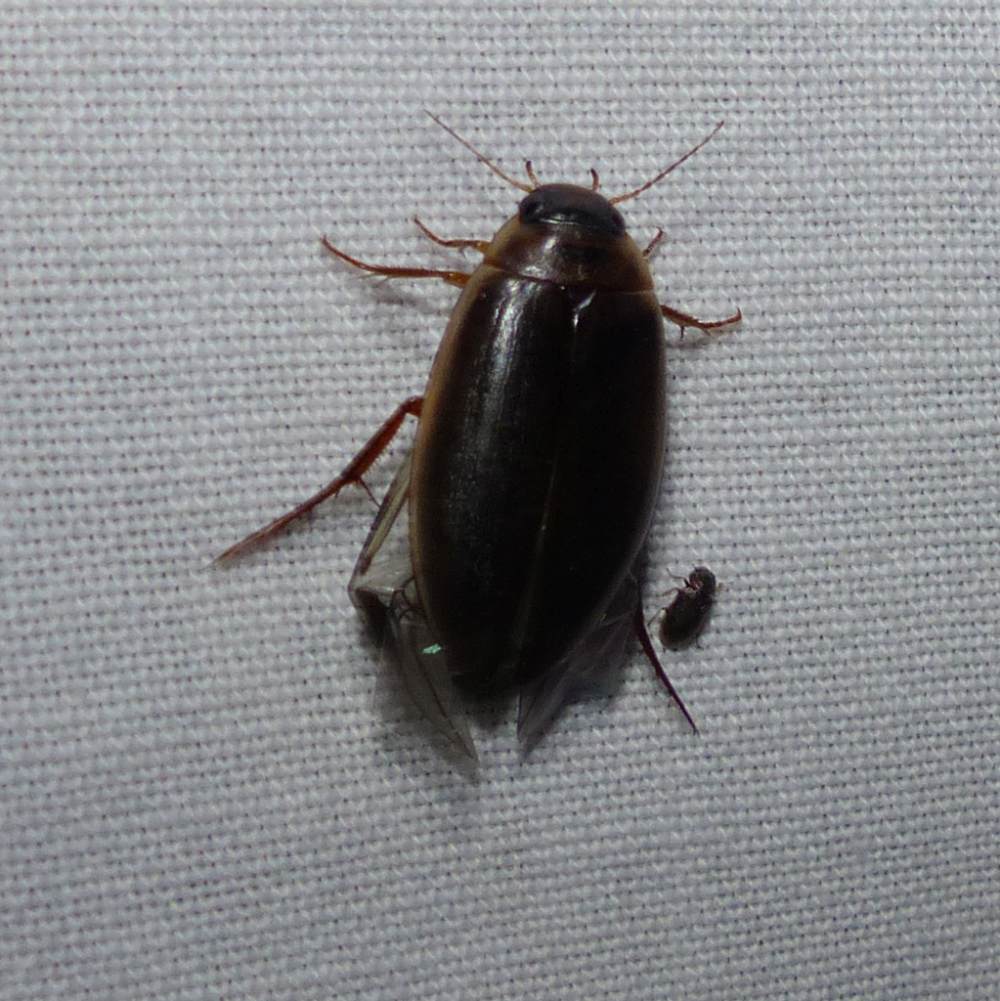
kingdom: Animalia
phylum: Arthropoda
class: Insecta
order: Coleoptera
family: Dytiscidae
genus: Colymbetes
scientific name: Colymbetes sculptilis
